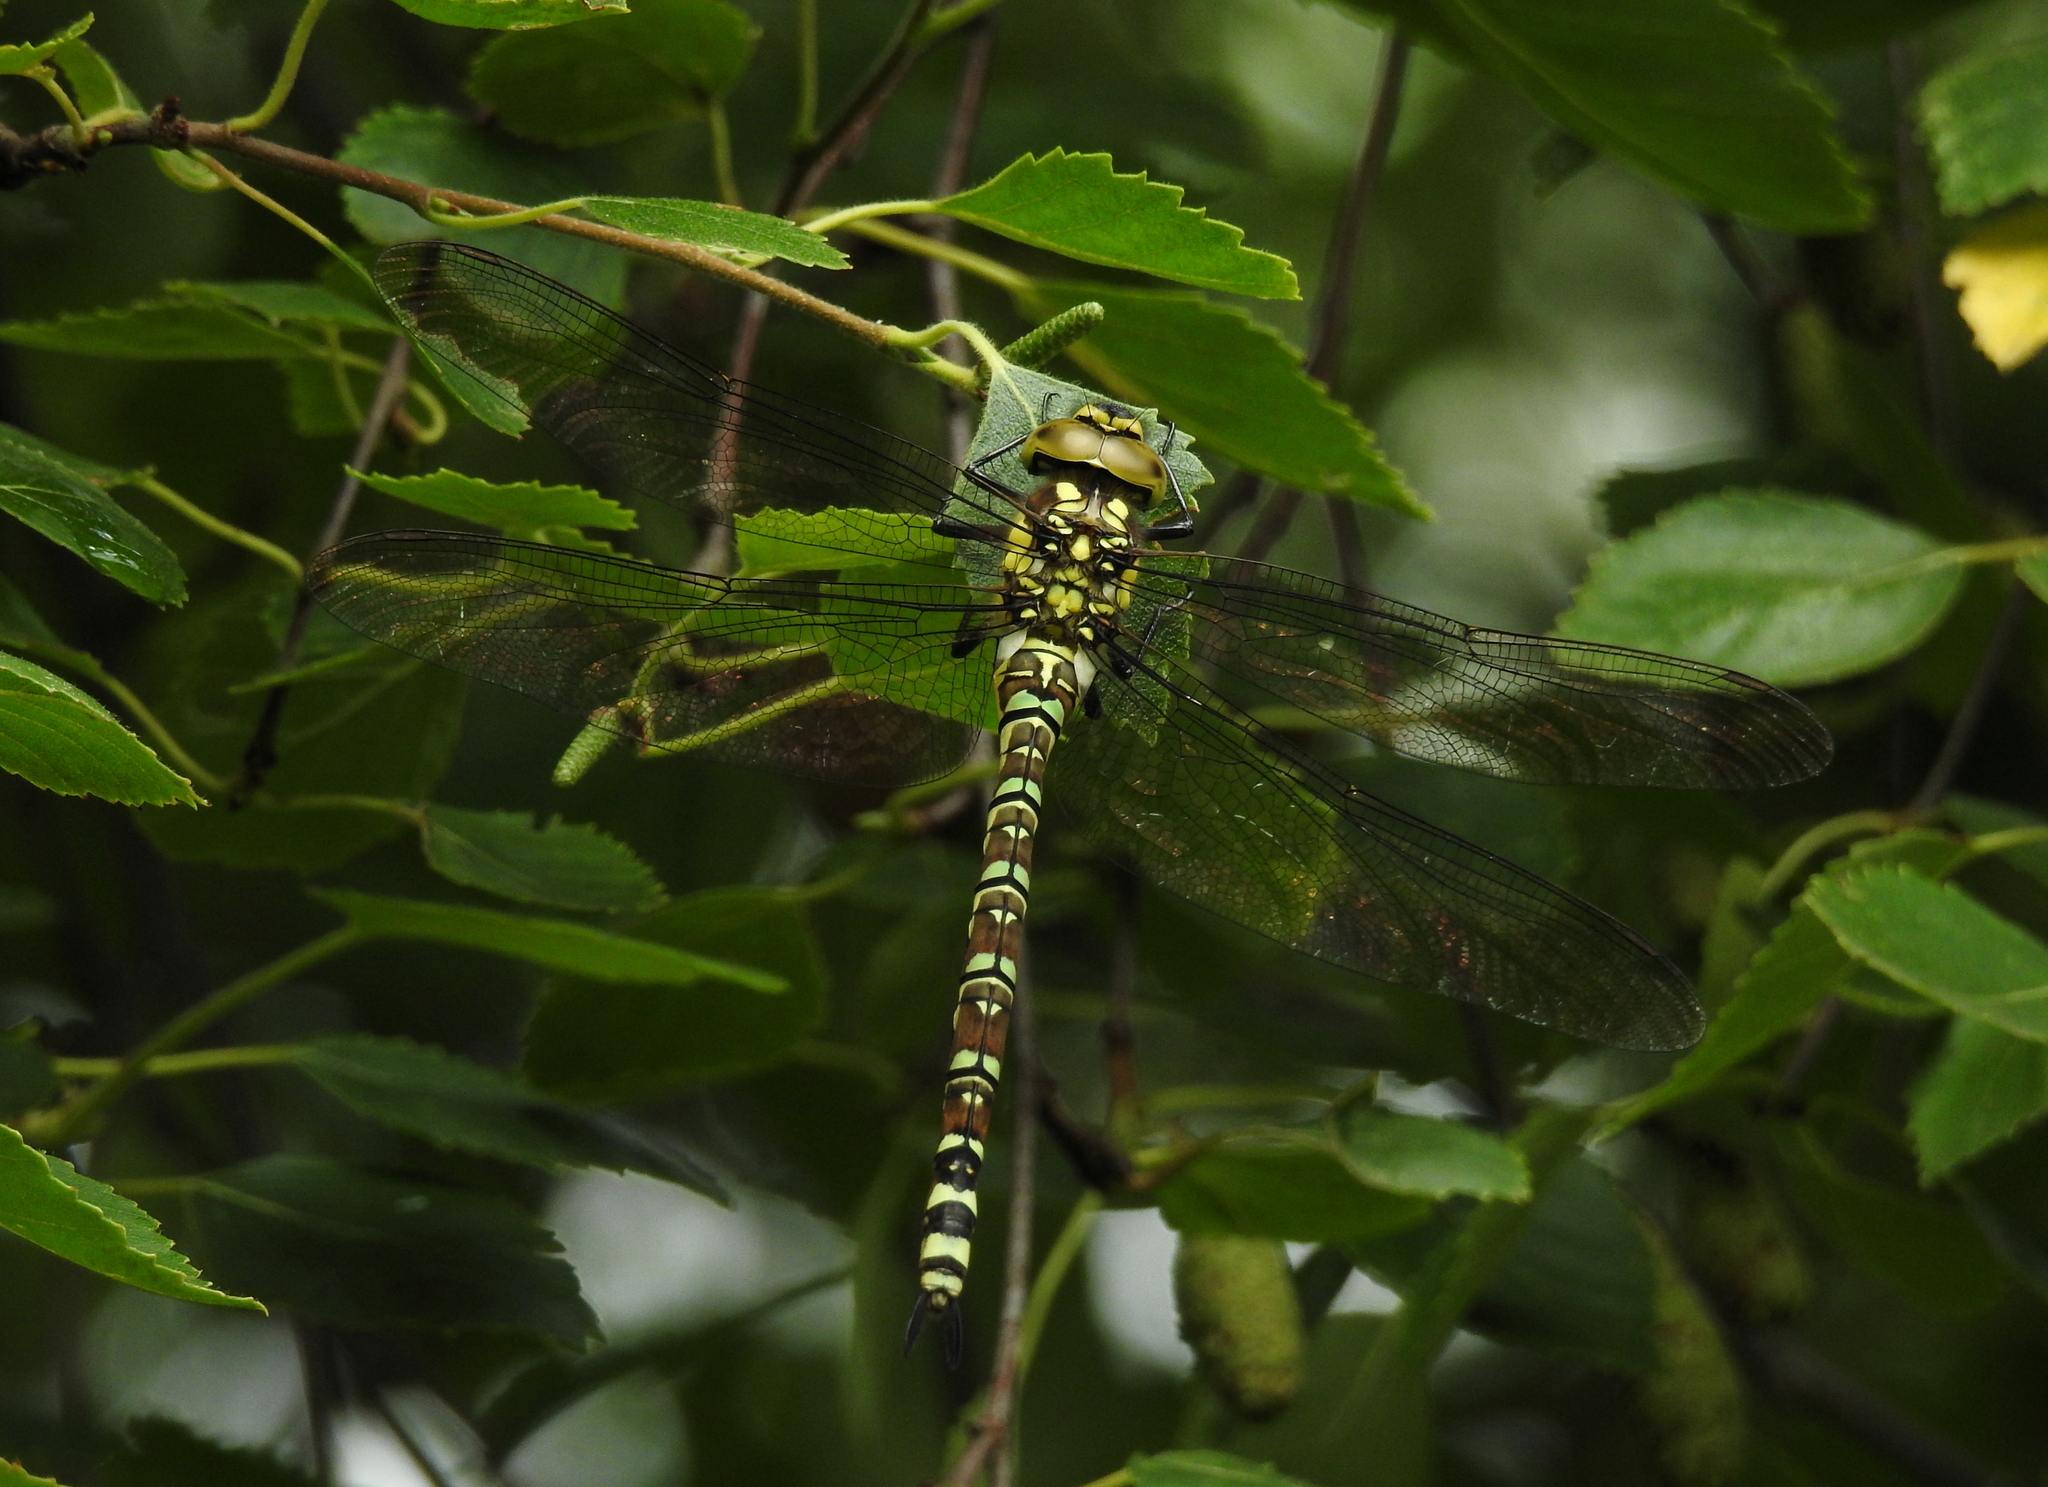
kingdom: Animalia
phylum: Arthropoda
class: Insecta
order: Odonata
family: Aeshnidae
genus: Aeshna
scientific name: Aeshna cyanea
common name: Southern hawker
